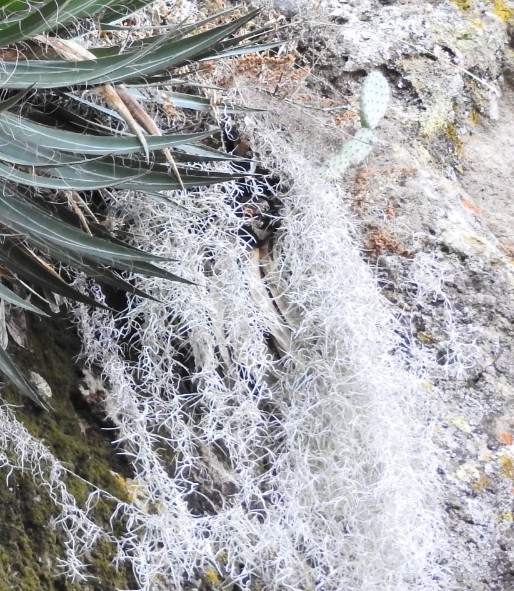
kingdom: Plantae
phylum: Tracheophyta
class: Magnoliopsida
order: Caryophyllales
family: Cactaceae
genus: Opuntia
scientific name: Opuntia
